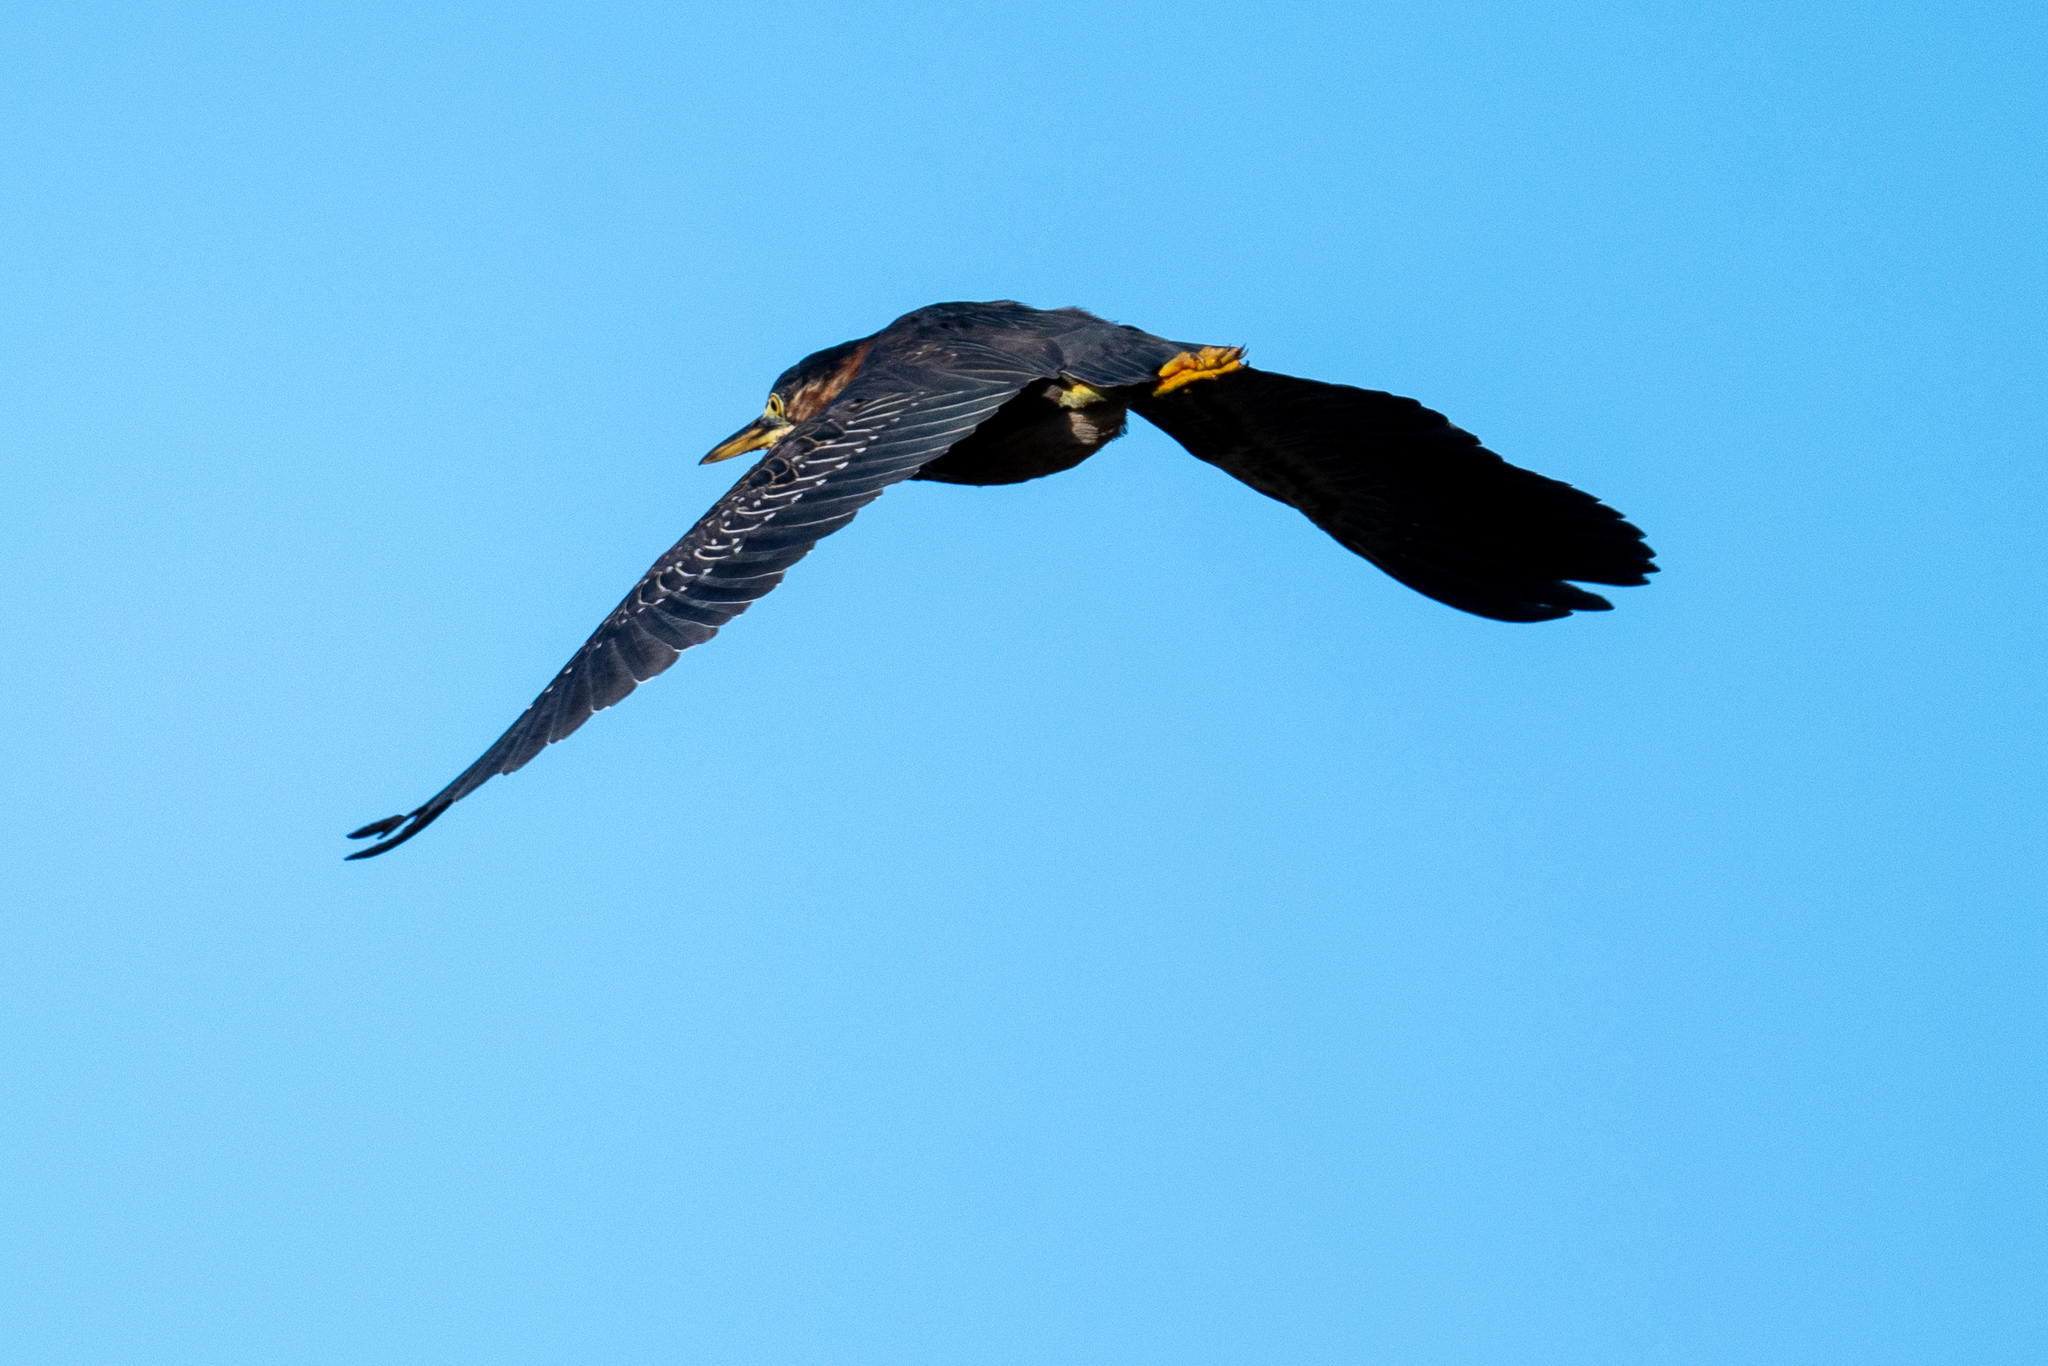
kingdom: Animalia
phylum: Chordata
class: Aves
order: Pelecaniformes
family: Ardeidae
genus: Butorides
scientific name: Butorides virescens
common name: Green heron
